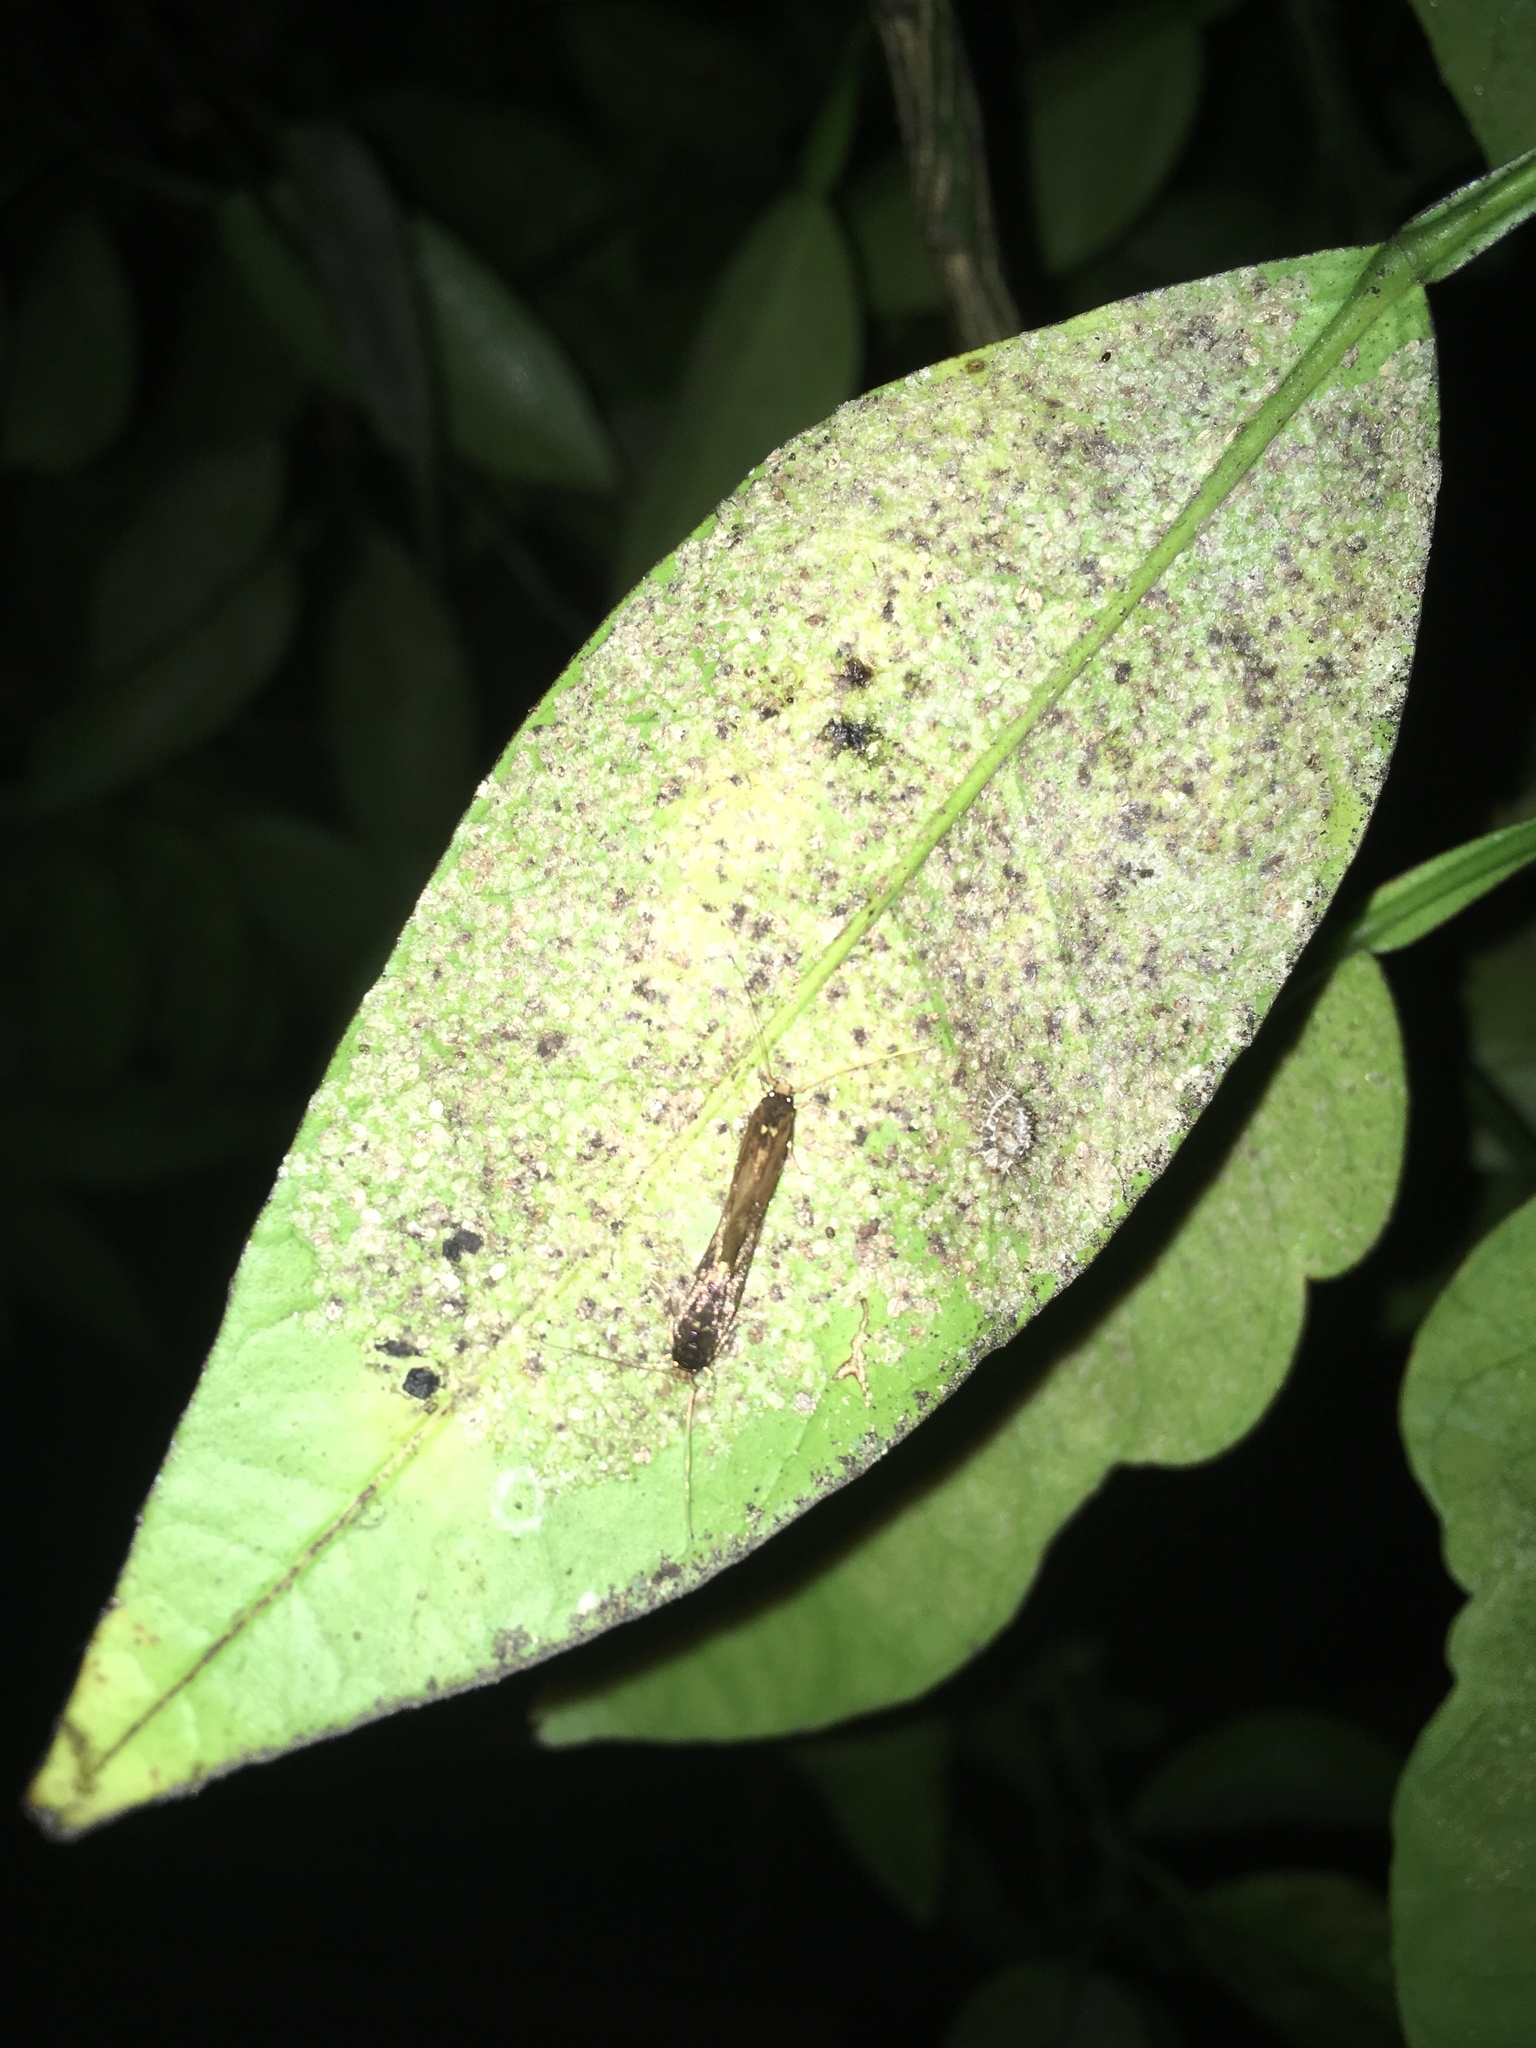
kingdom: Animalia
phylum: Arthropoda
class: Insecta
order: Lepidoptera
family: Tineidae
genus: Opogona
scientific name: Opogona omoscopa
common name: Moth
